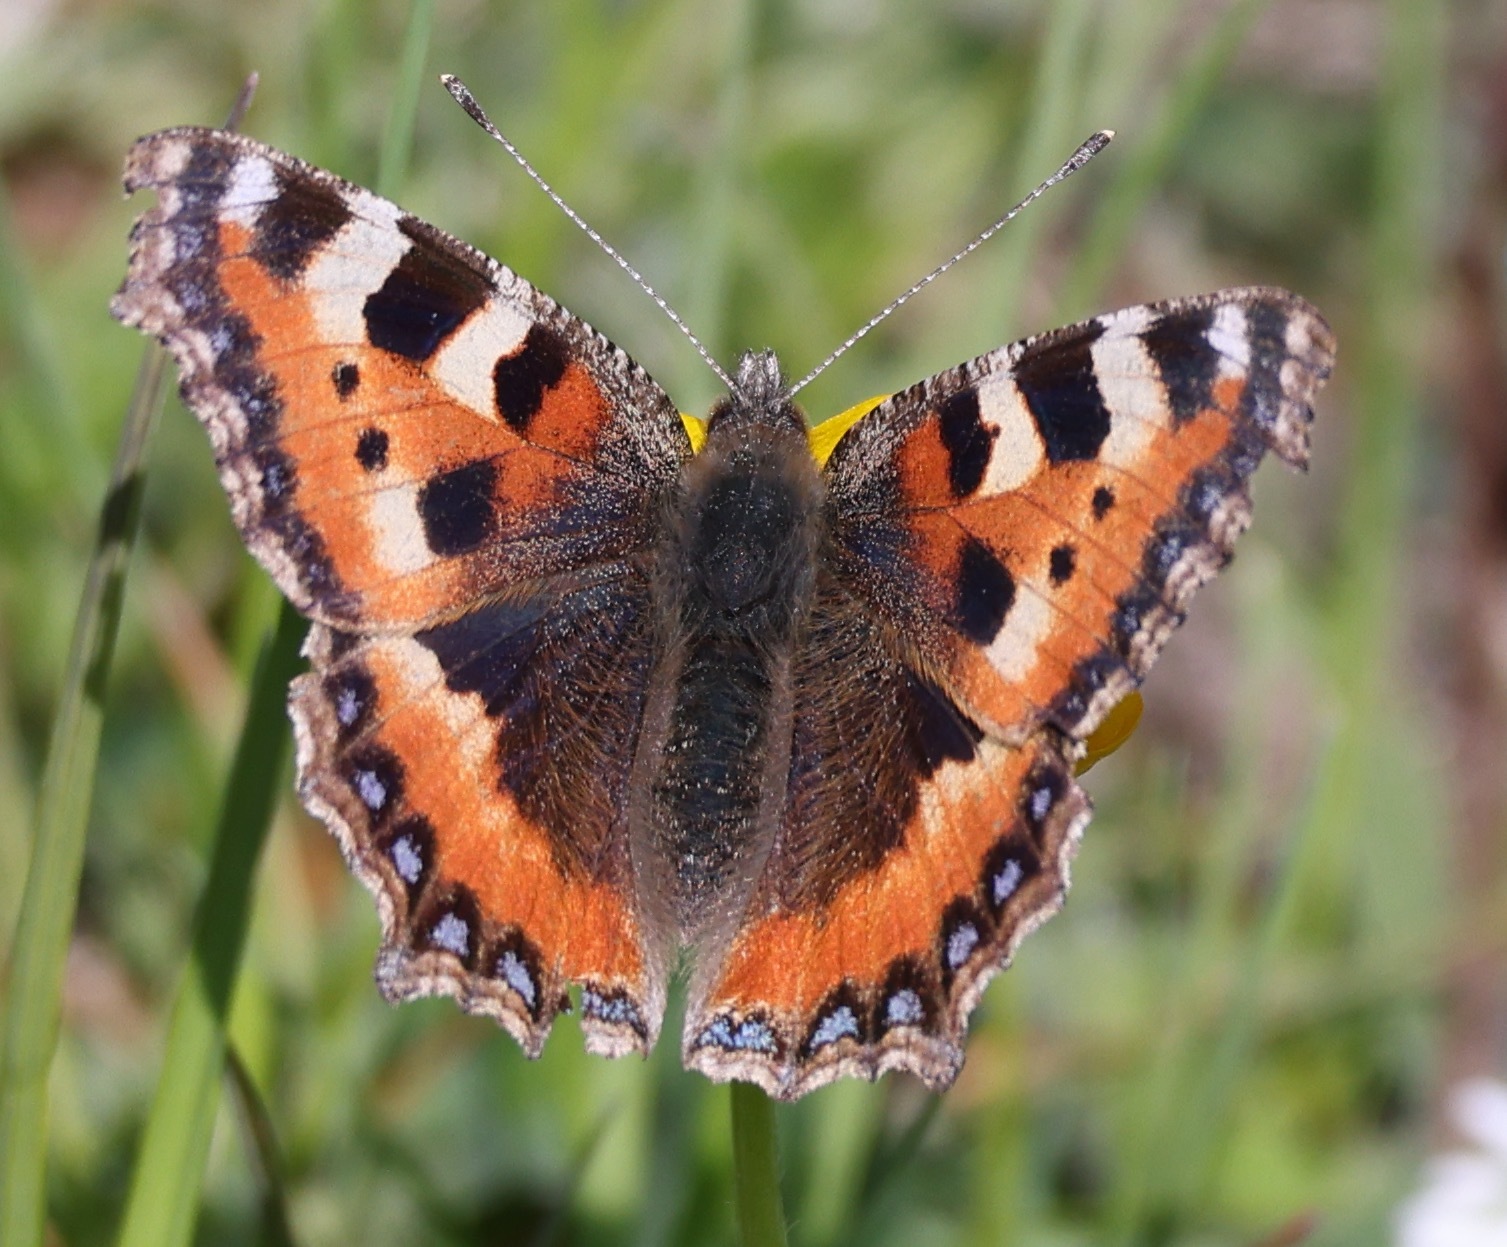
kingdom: Animalia
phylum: Arthropoda
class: Insecta
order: Lepidoptera
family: Nymphalidae
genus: Aglais
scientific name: Aglais urticae
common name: Small tortoiseshell
